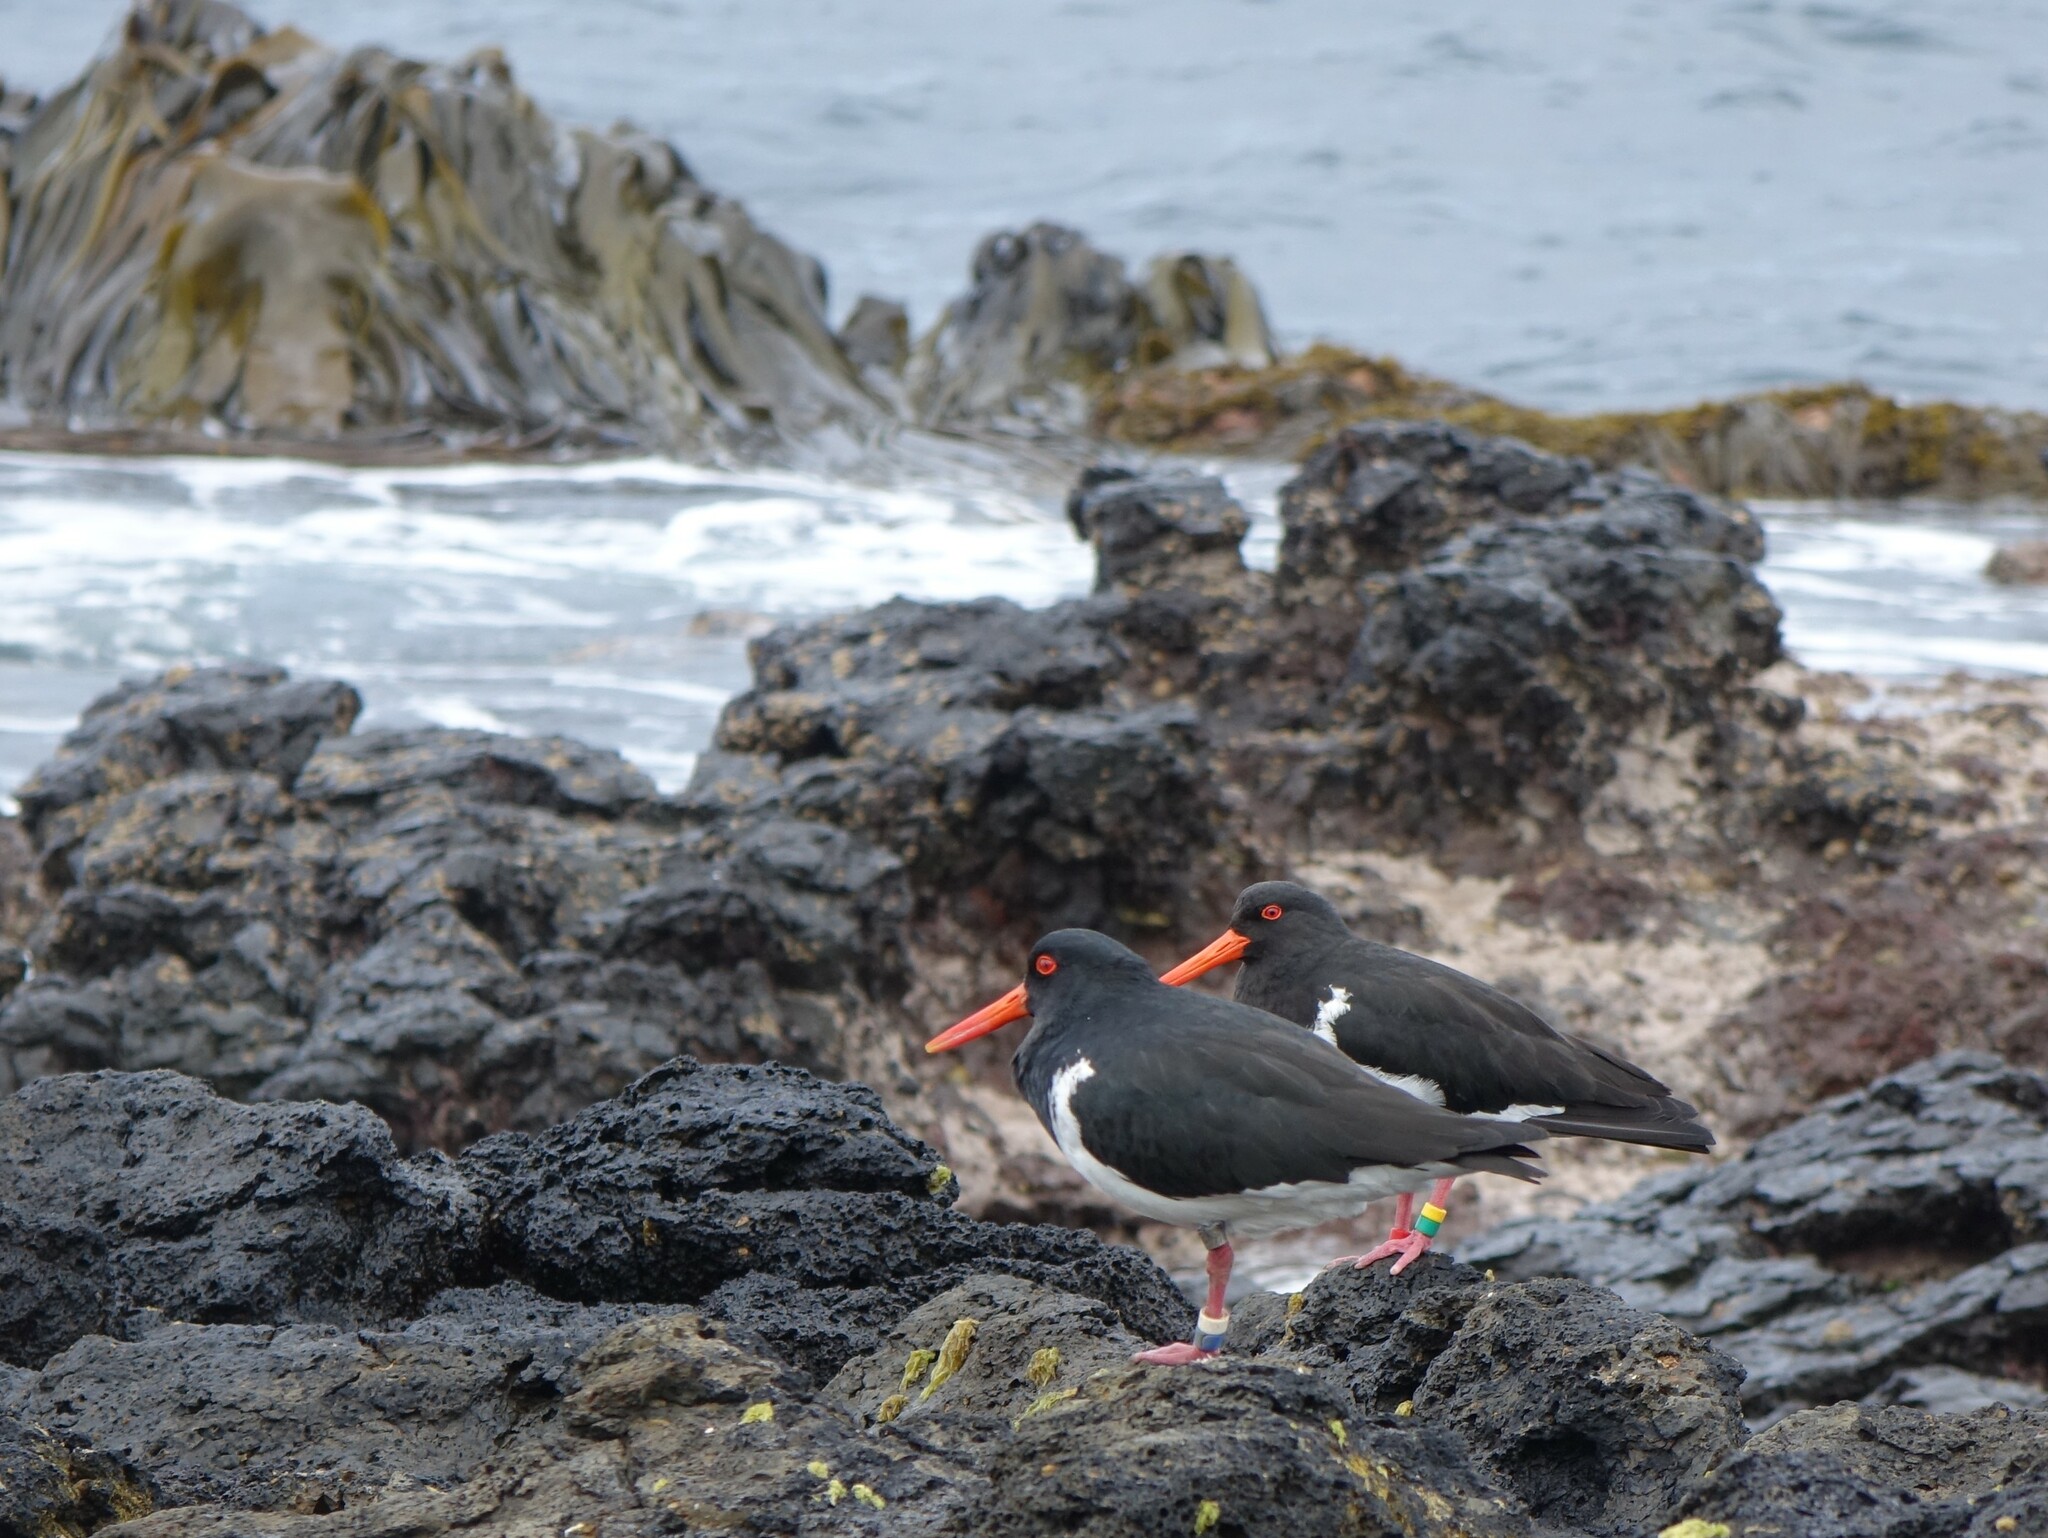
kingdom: Animalia
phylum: Chordata
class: Aves
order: Charadriiformes
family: Haematopodidae
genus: Haematopus
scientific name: Haematopus chathamensis
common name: Chatham oystercatcher
